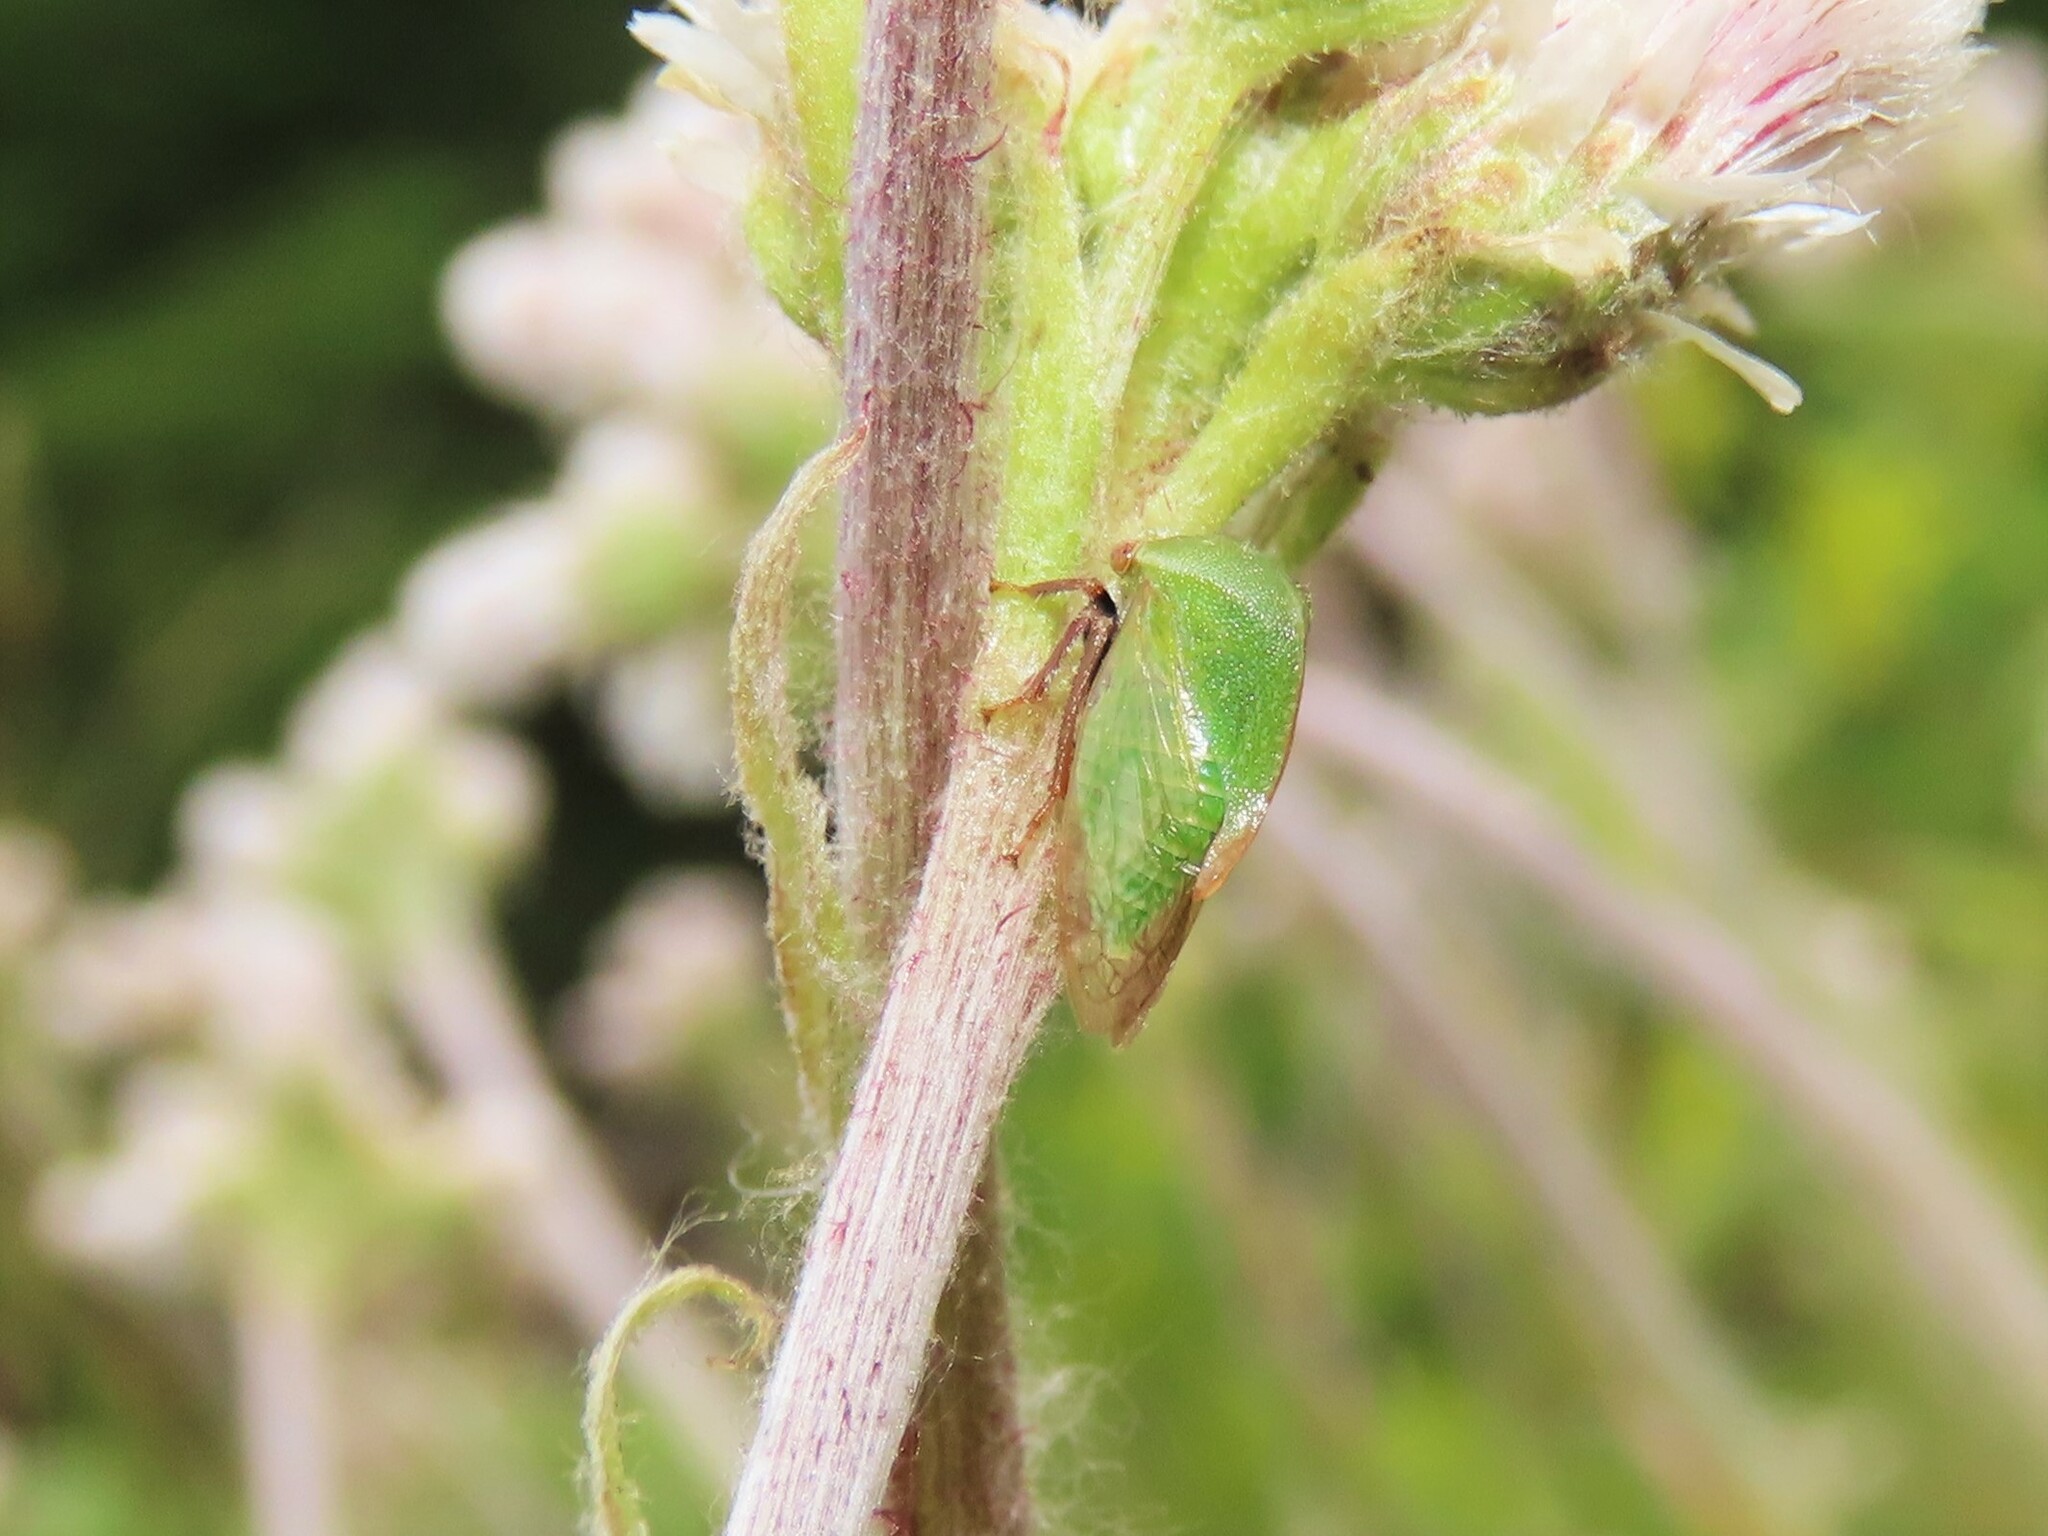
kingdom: Animalia
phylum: Arthropoda
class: Insecta
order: Hemiptera
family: Membracidae
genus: Stictocephala
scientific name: Stictocephala lutea
